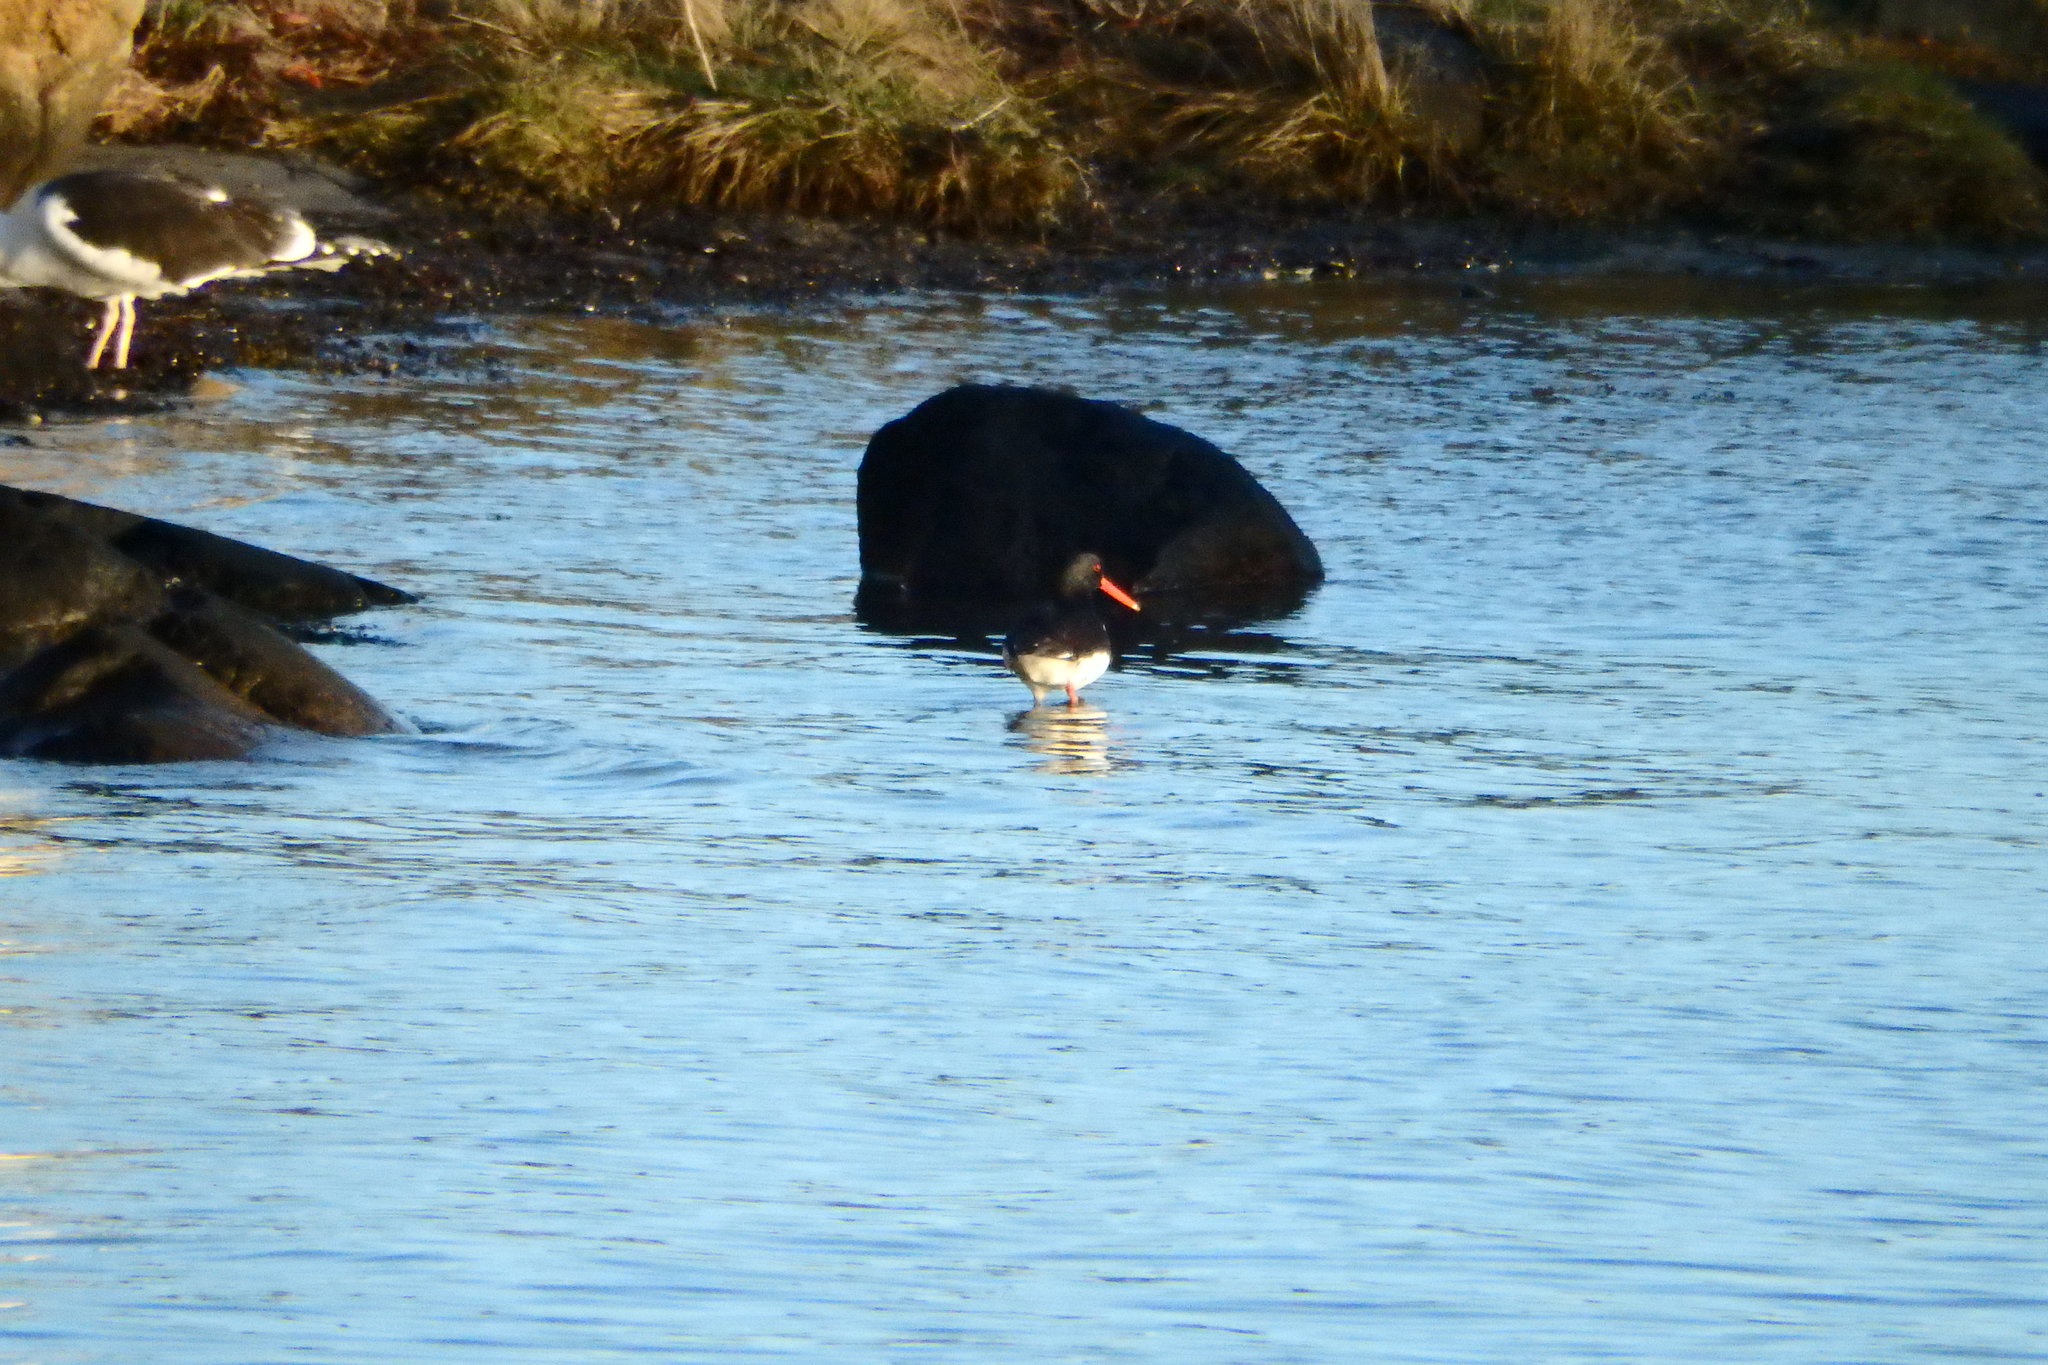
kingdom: Animalia
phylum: Chordata
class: Aves
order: Charadriiformes
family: Haematopodidae
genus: Haematopus
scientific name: Haematopus ostralegus
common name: Eurasian oystercatcher
